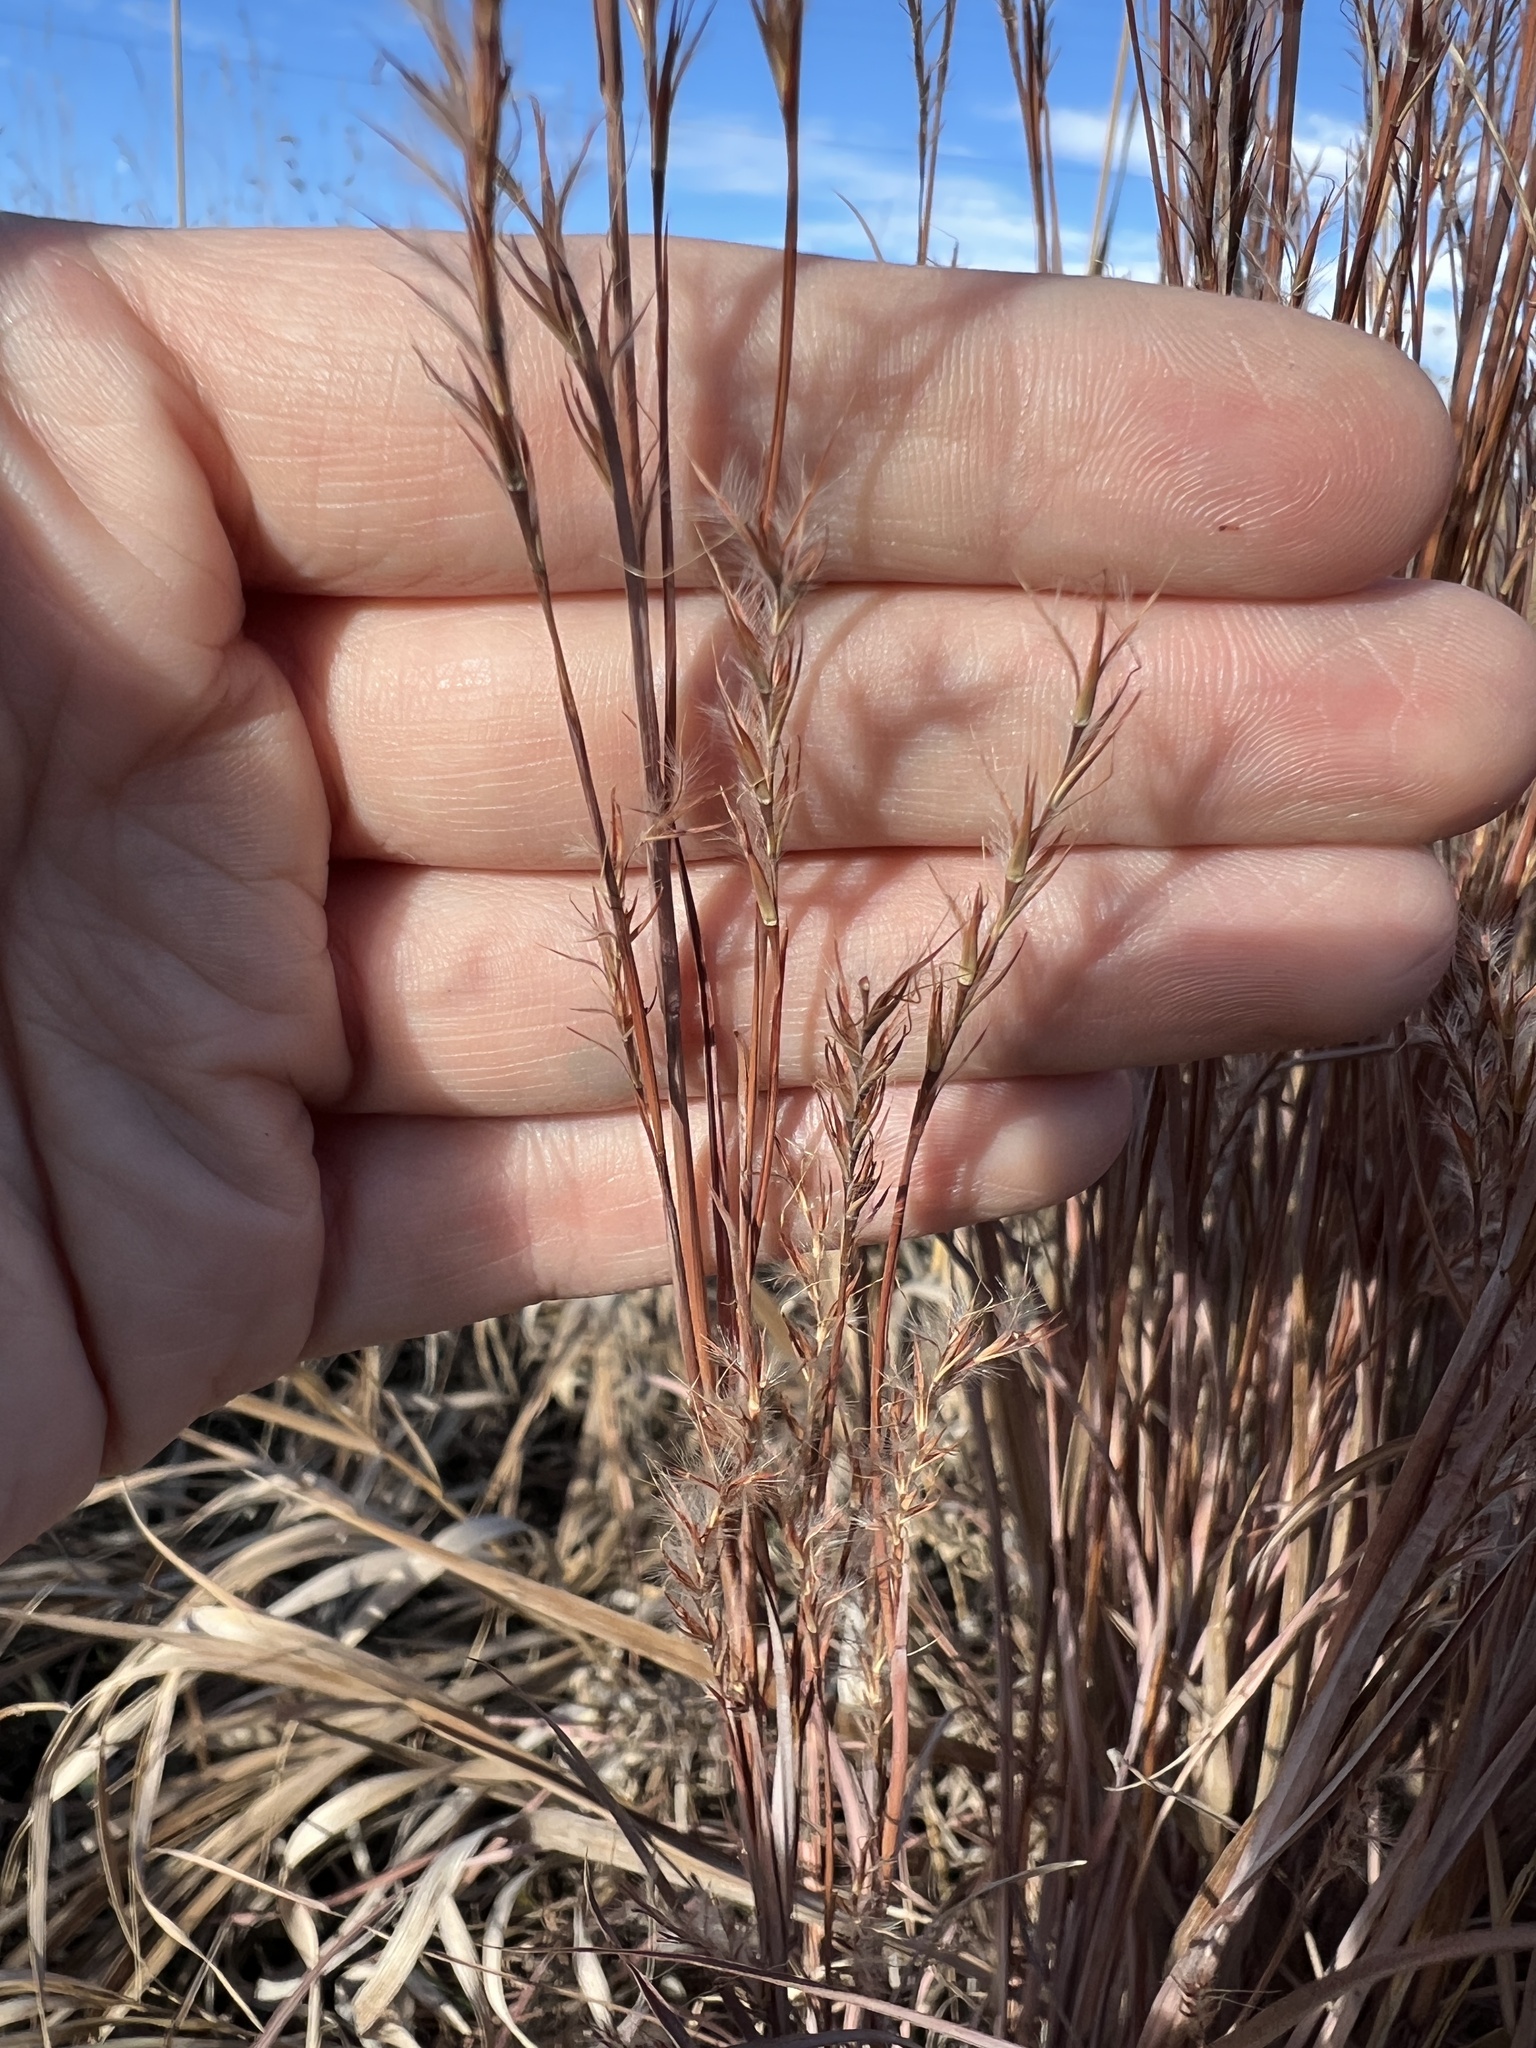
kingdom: Plantae
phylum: Tracheophyta
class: Liliopsida
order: Poales
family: Poaceae
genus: Schizachyrium
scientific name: Schizachyrium scoparium
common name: Little bluestem
